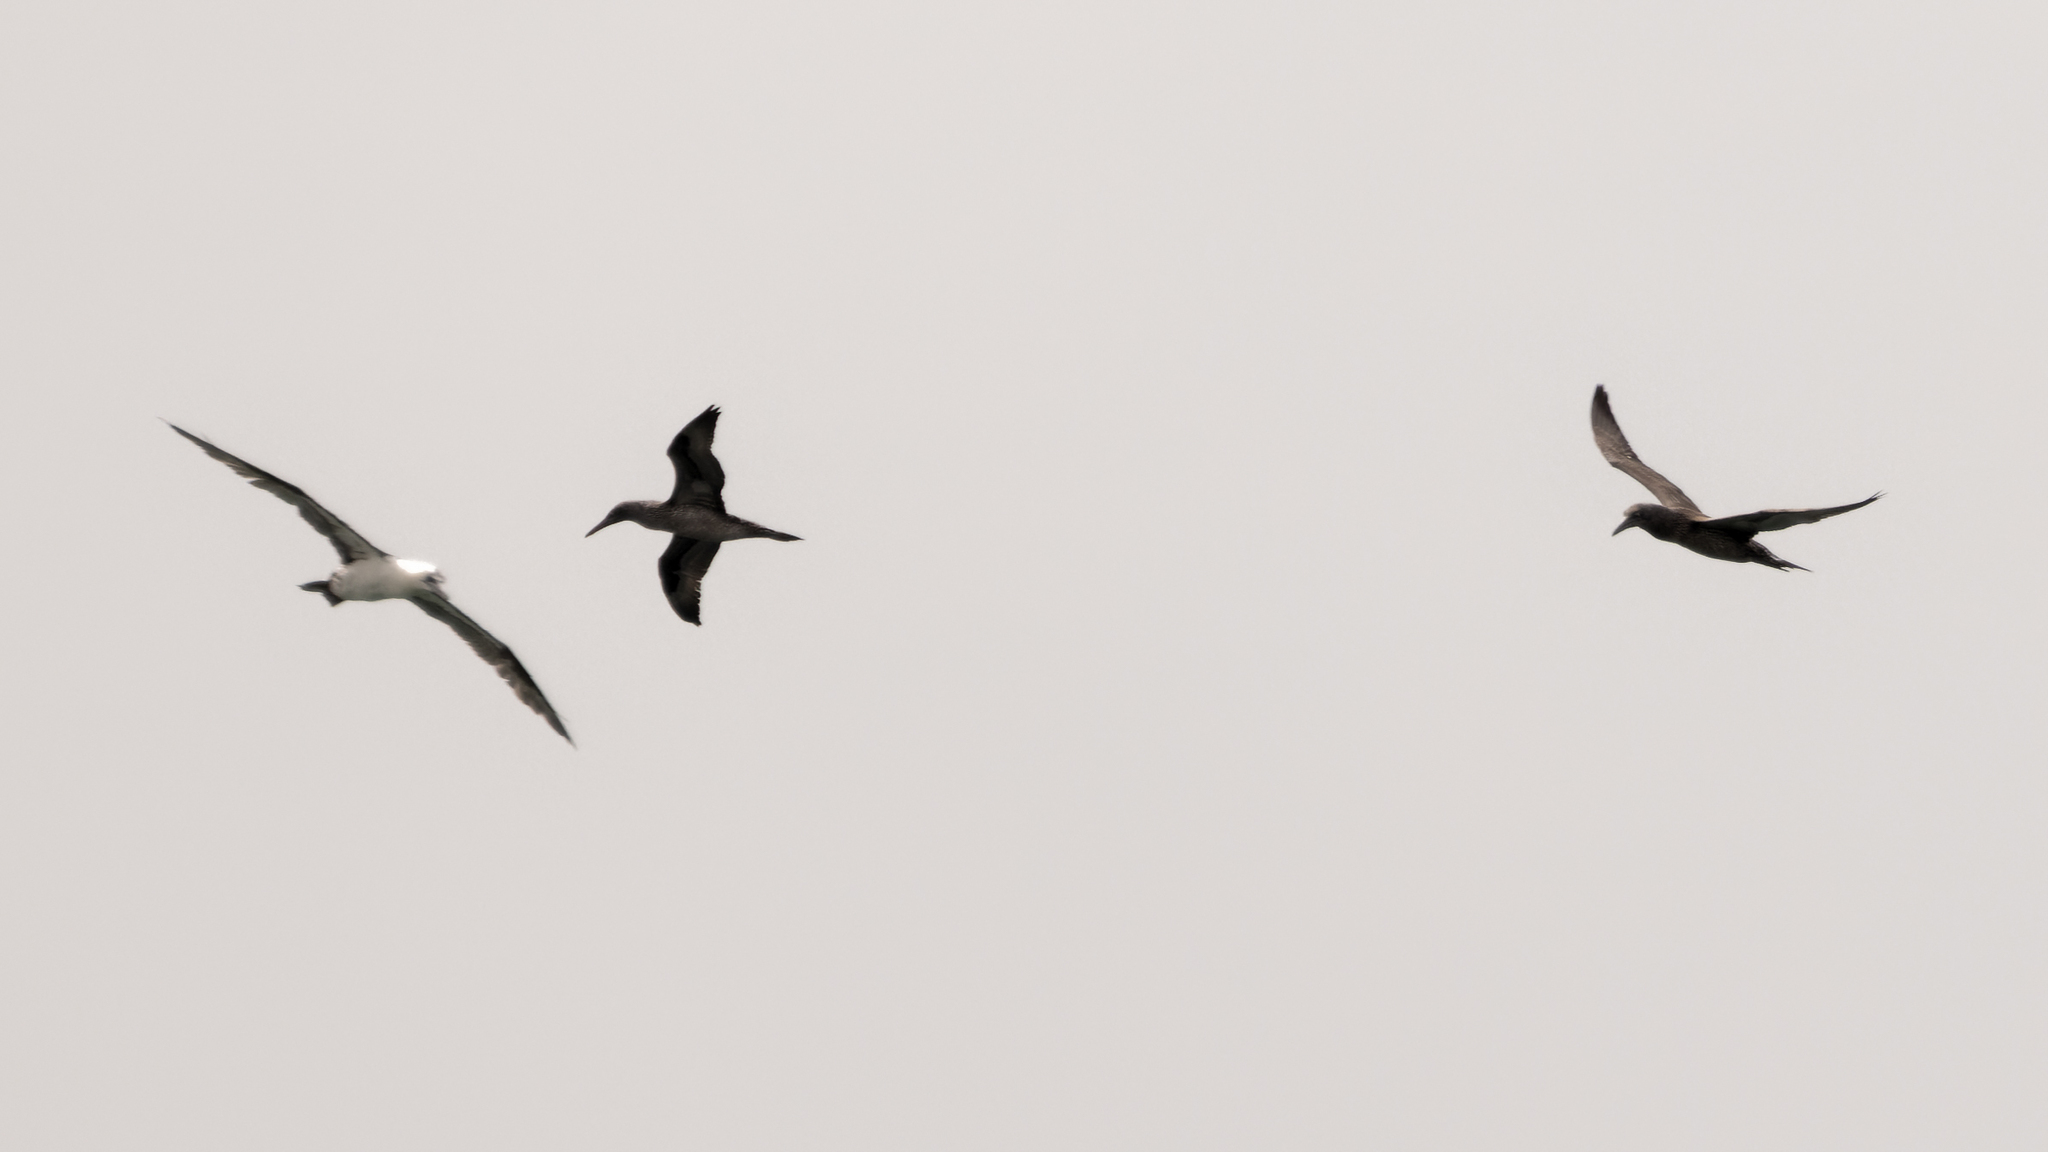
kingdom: Animalia
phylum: Chordata
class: Aves
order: Suliformes
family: Sulidae
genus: Morus
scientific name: Morus bassanus
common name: Northern gannet
